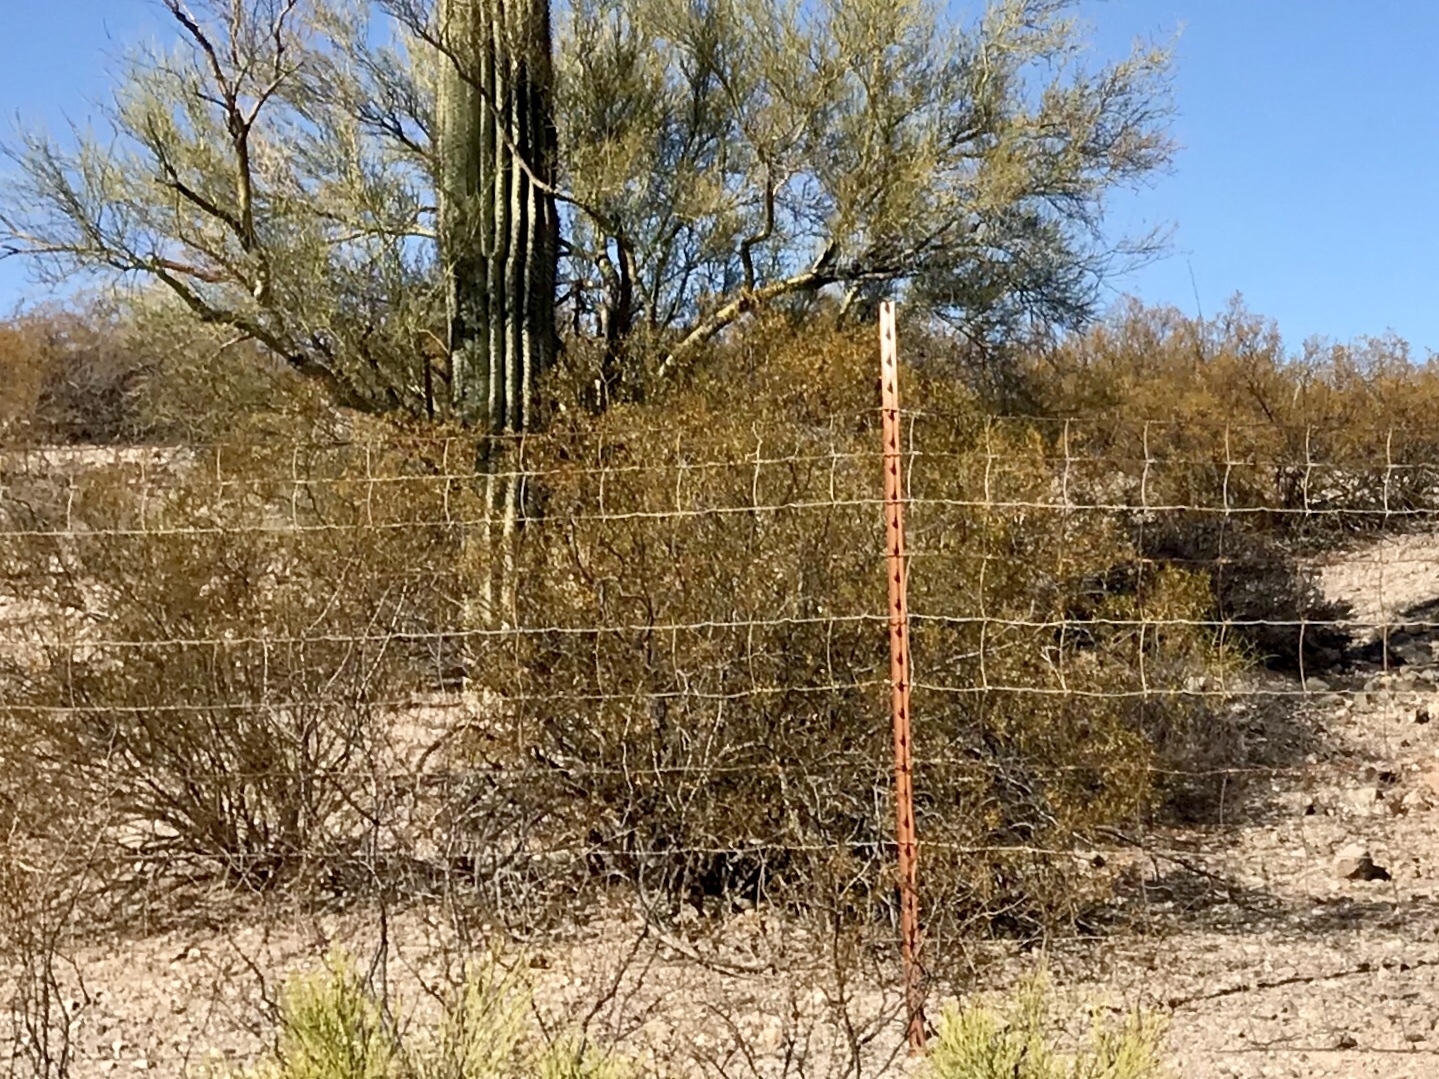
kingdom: Plantae
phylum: Tracheophyta
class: Magnoliopsida
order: Zygophyllales
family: Zygophyllaceae
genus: Larrea
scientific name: Larrea tridentata
